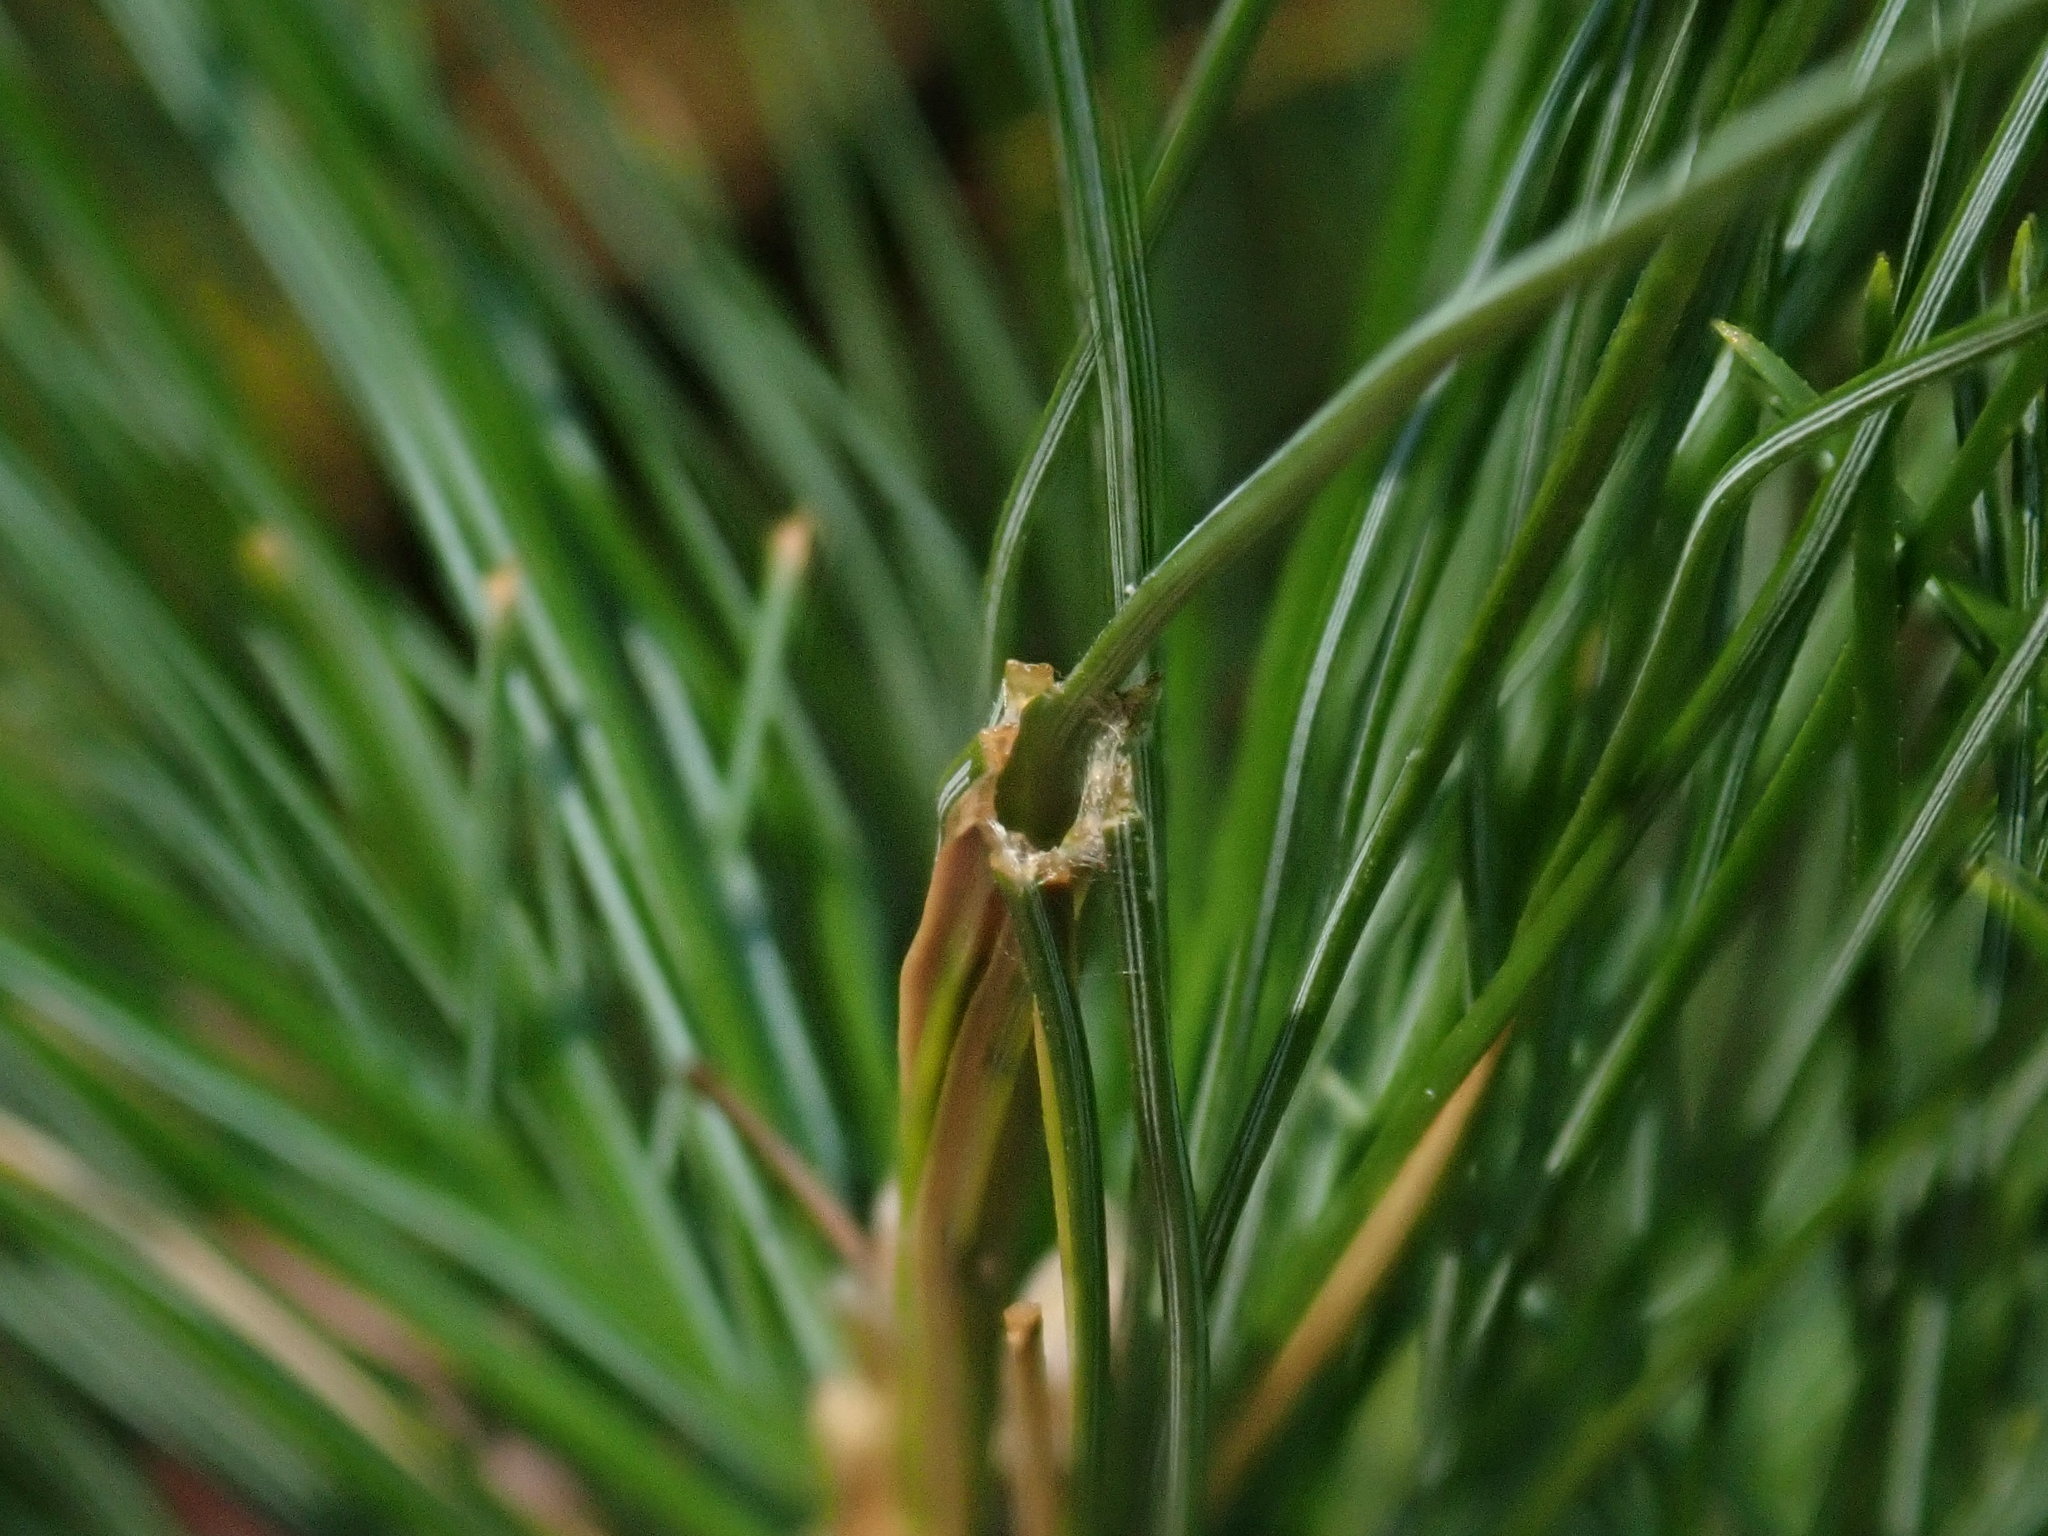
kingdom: Animalia
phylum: Arthropoda
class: Insecta
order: Lepidoptera
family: Tortricidae
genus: Argyrotaenia
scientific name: Argyrotaenia pinatubana
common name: Pine tube moth
